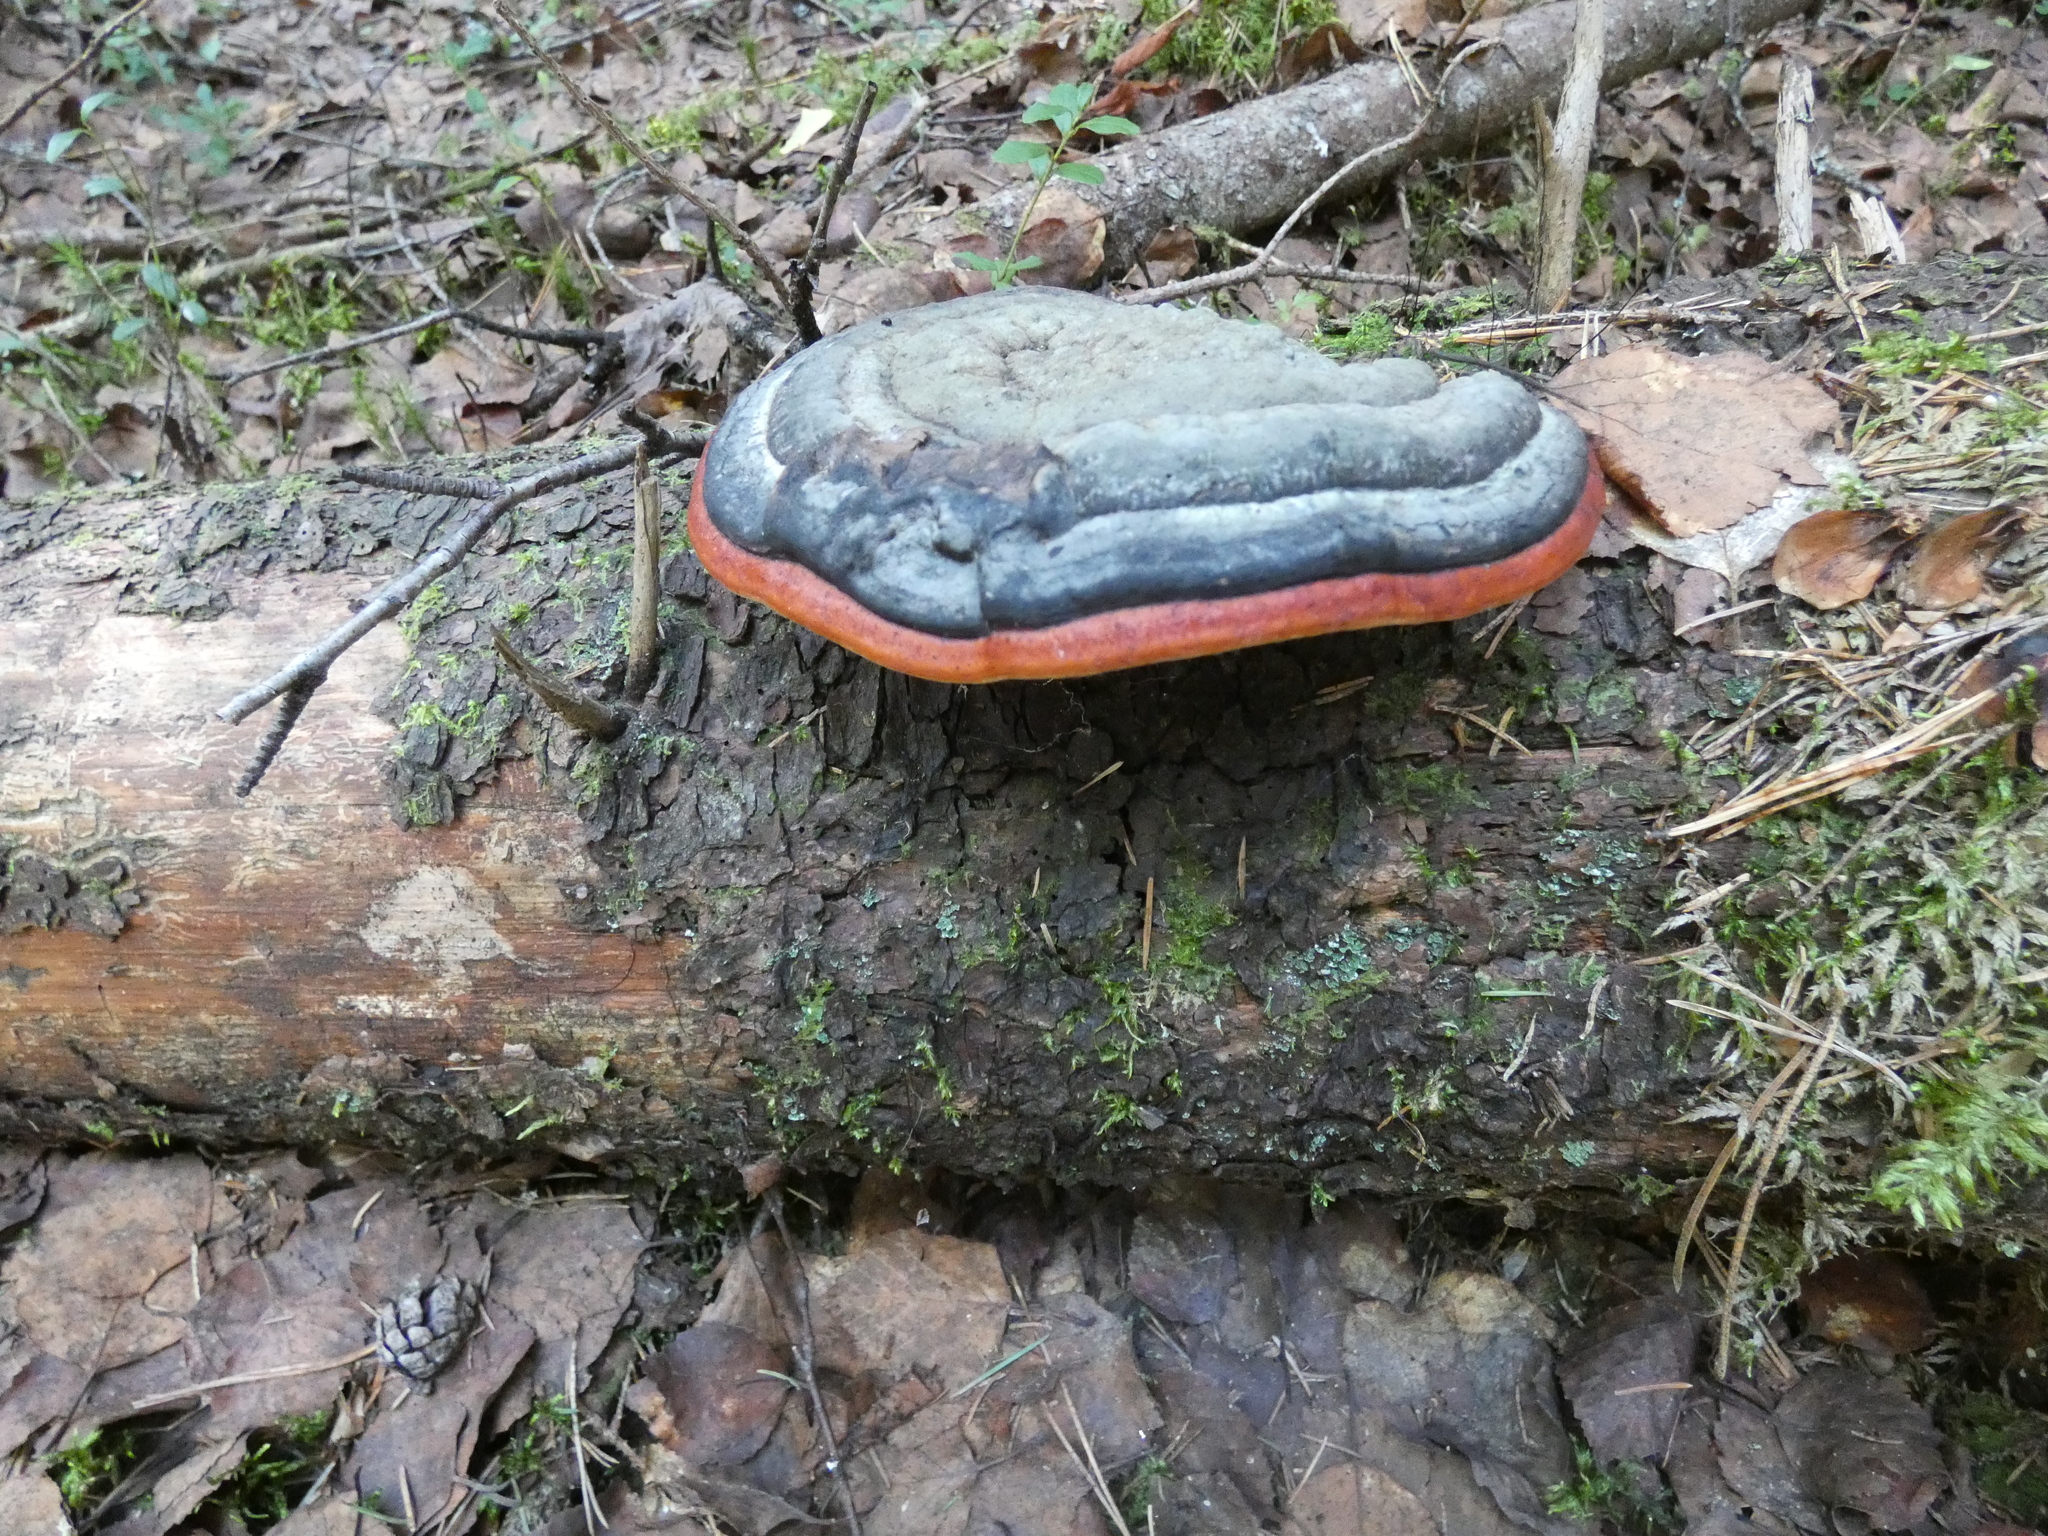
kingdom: Fungi
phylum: Basidiomycota
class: Agaricomycetes
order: Polyporales
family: Fomitopsidaceae
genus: Fomitopsis
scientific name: Fomitopsis pinicola
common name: Red-belted bracket
